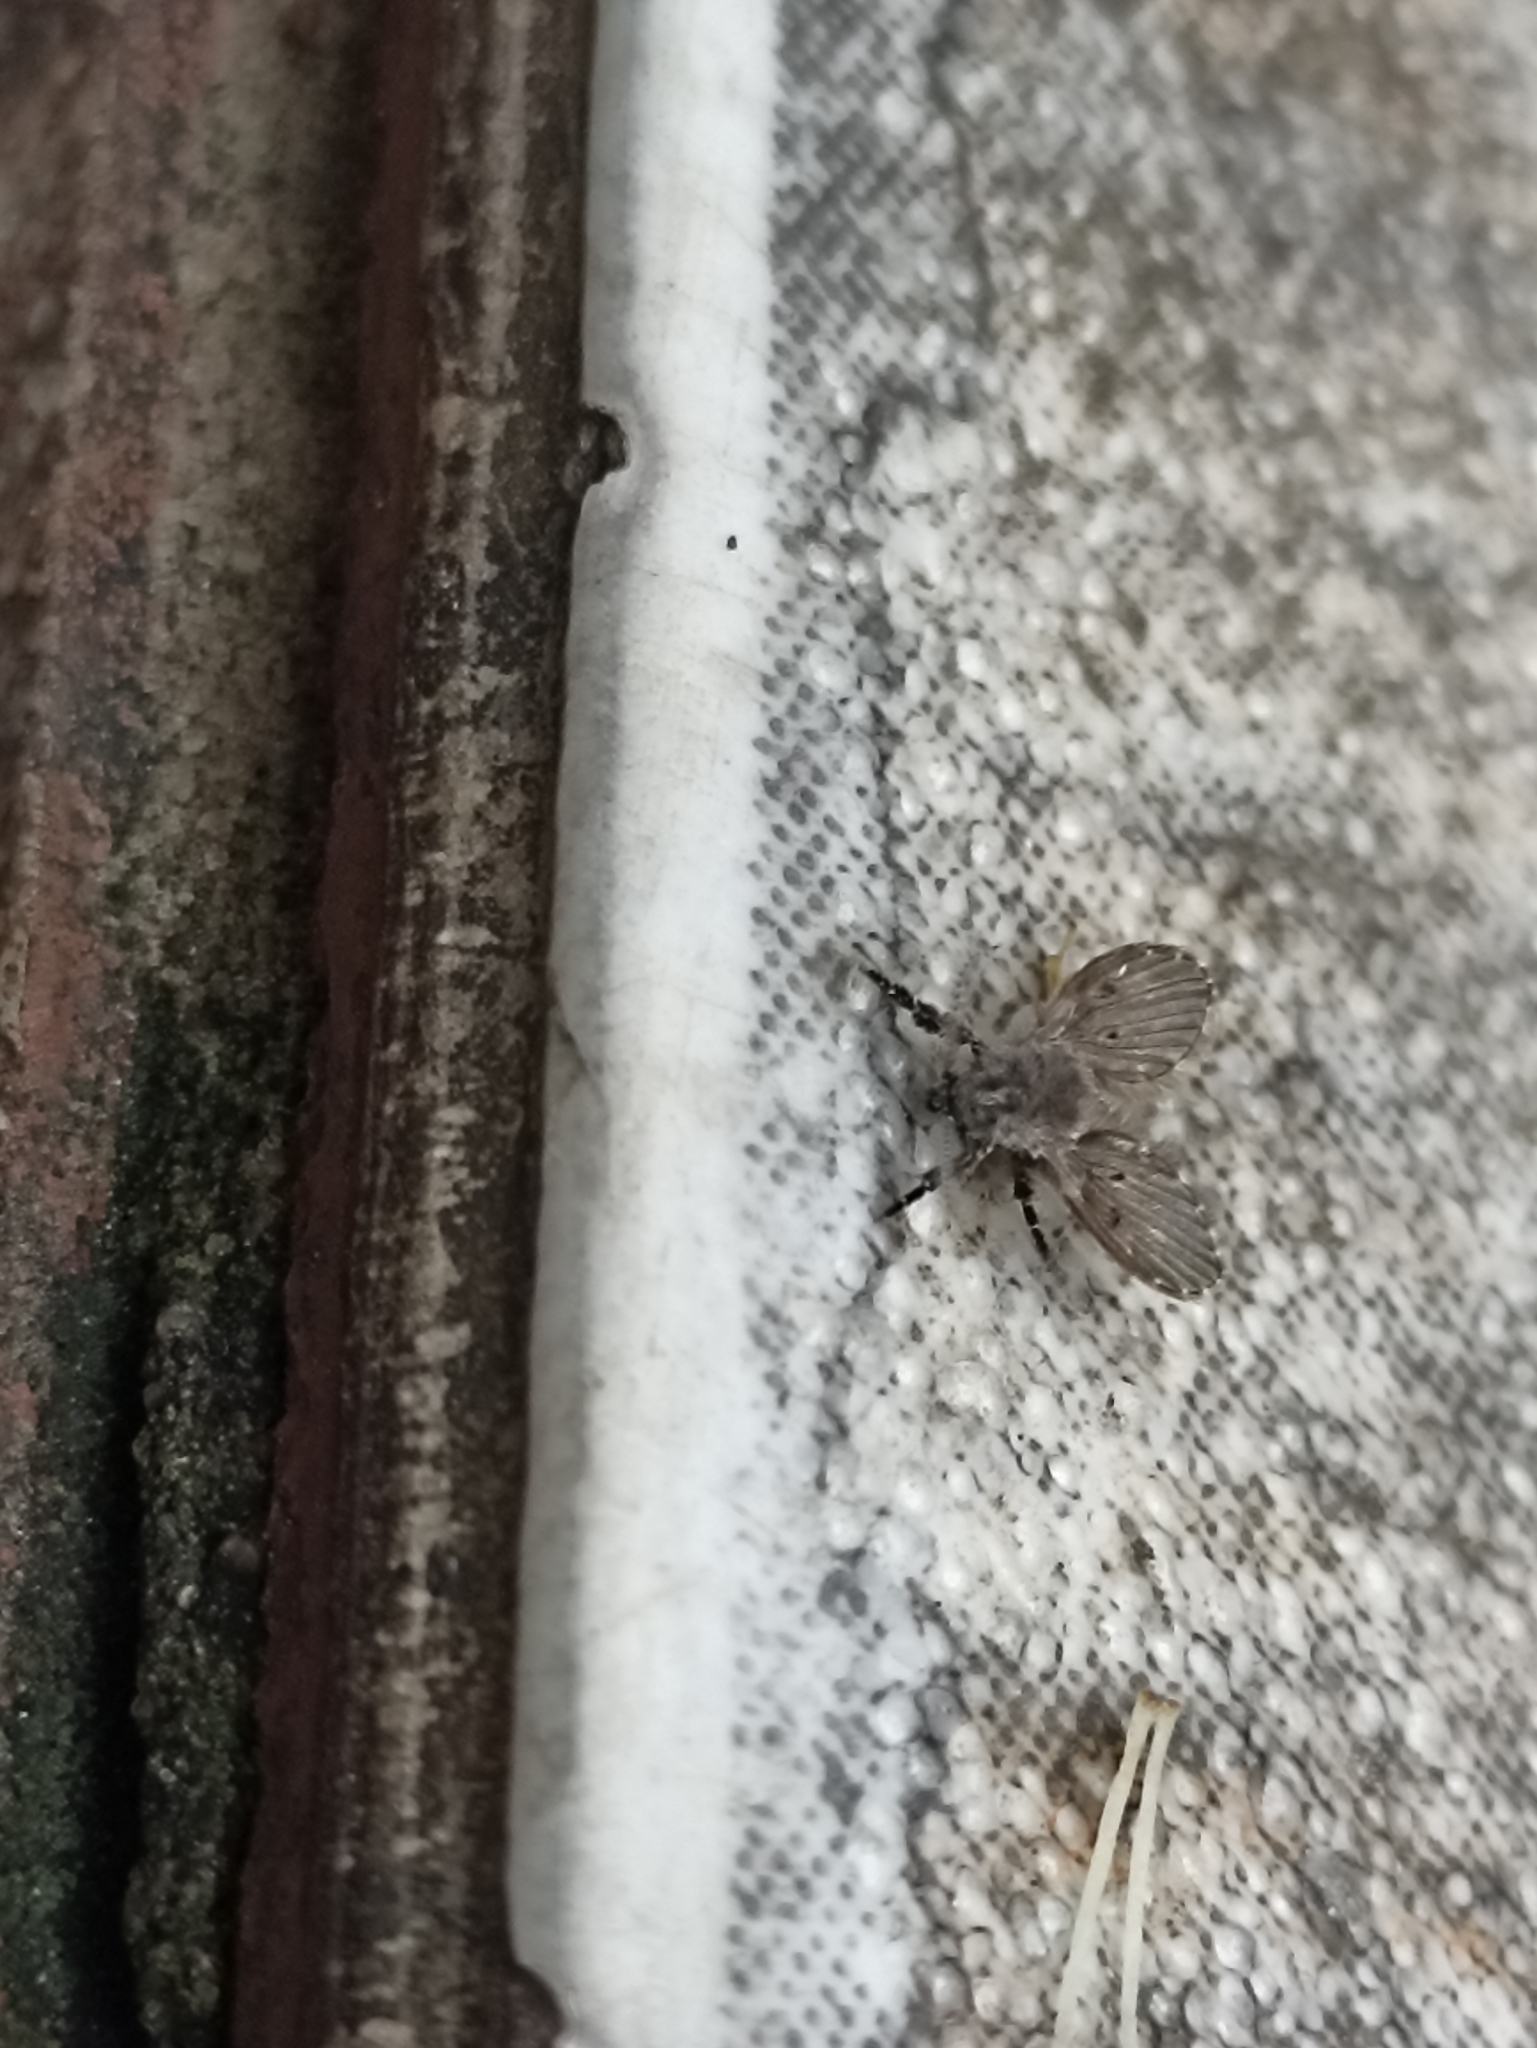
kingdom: Animalia
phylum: Arthropoda
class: Insecta
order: Diptera
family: Psychodidae
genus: Clogmia
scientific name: Clogmia albipunctatus
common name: White-spotted moth fly
